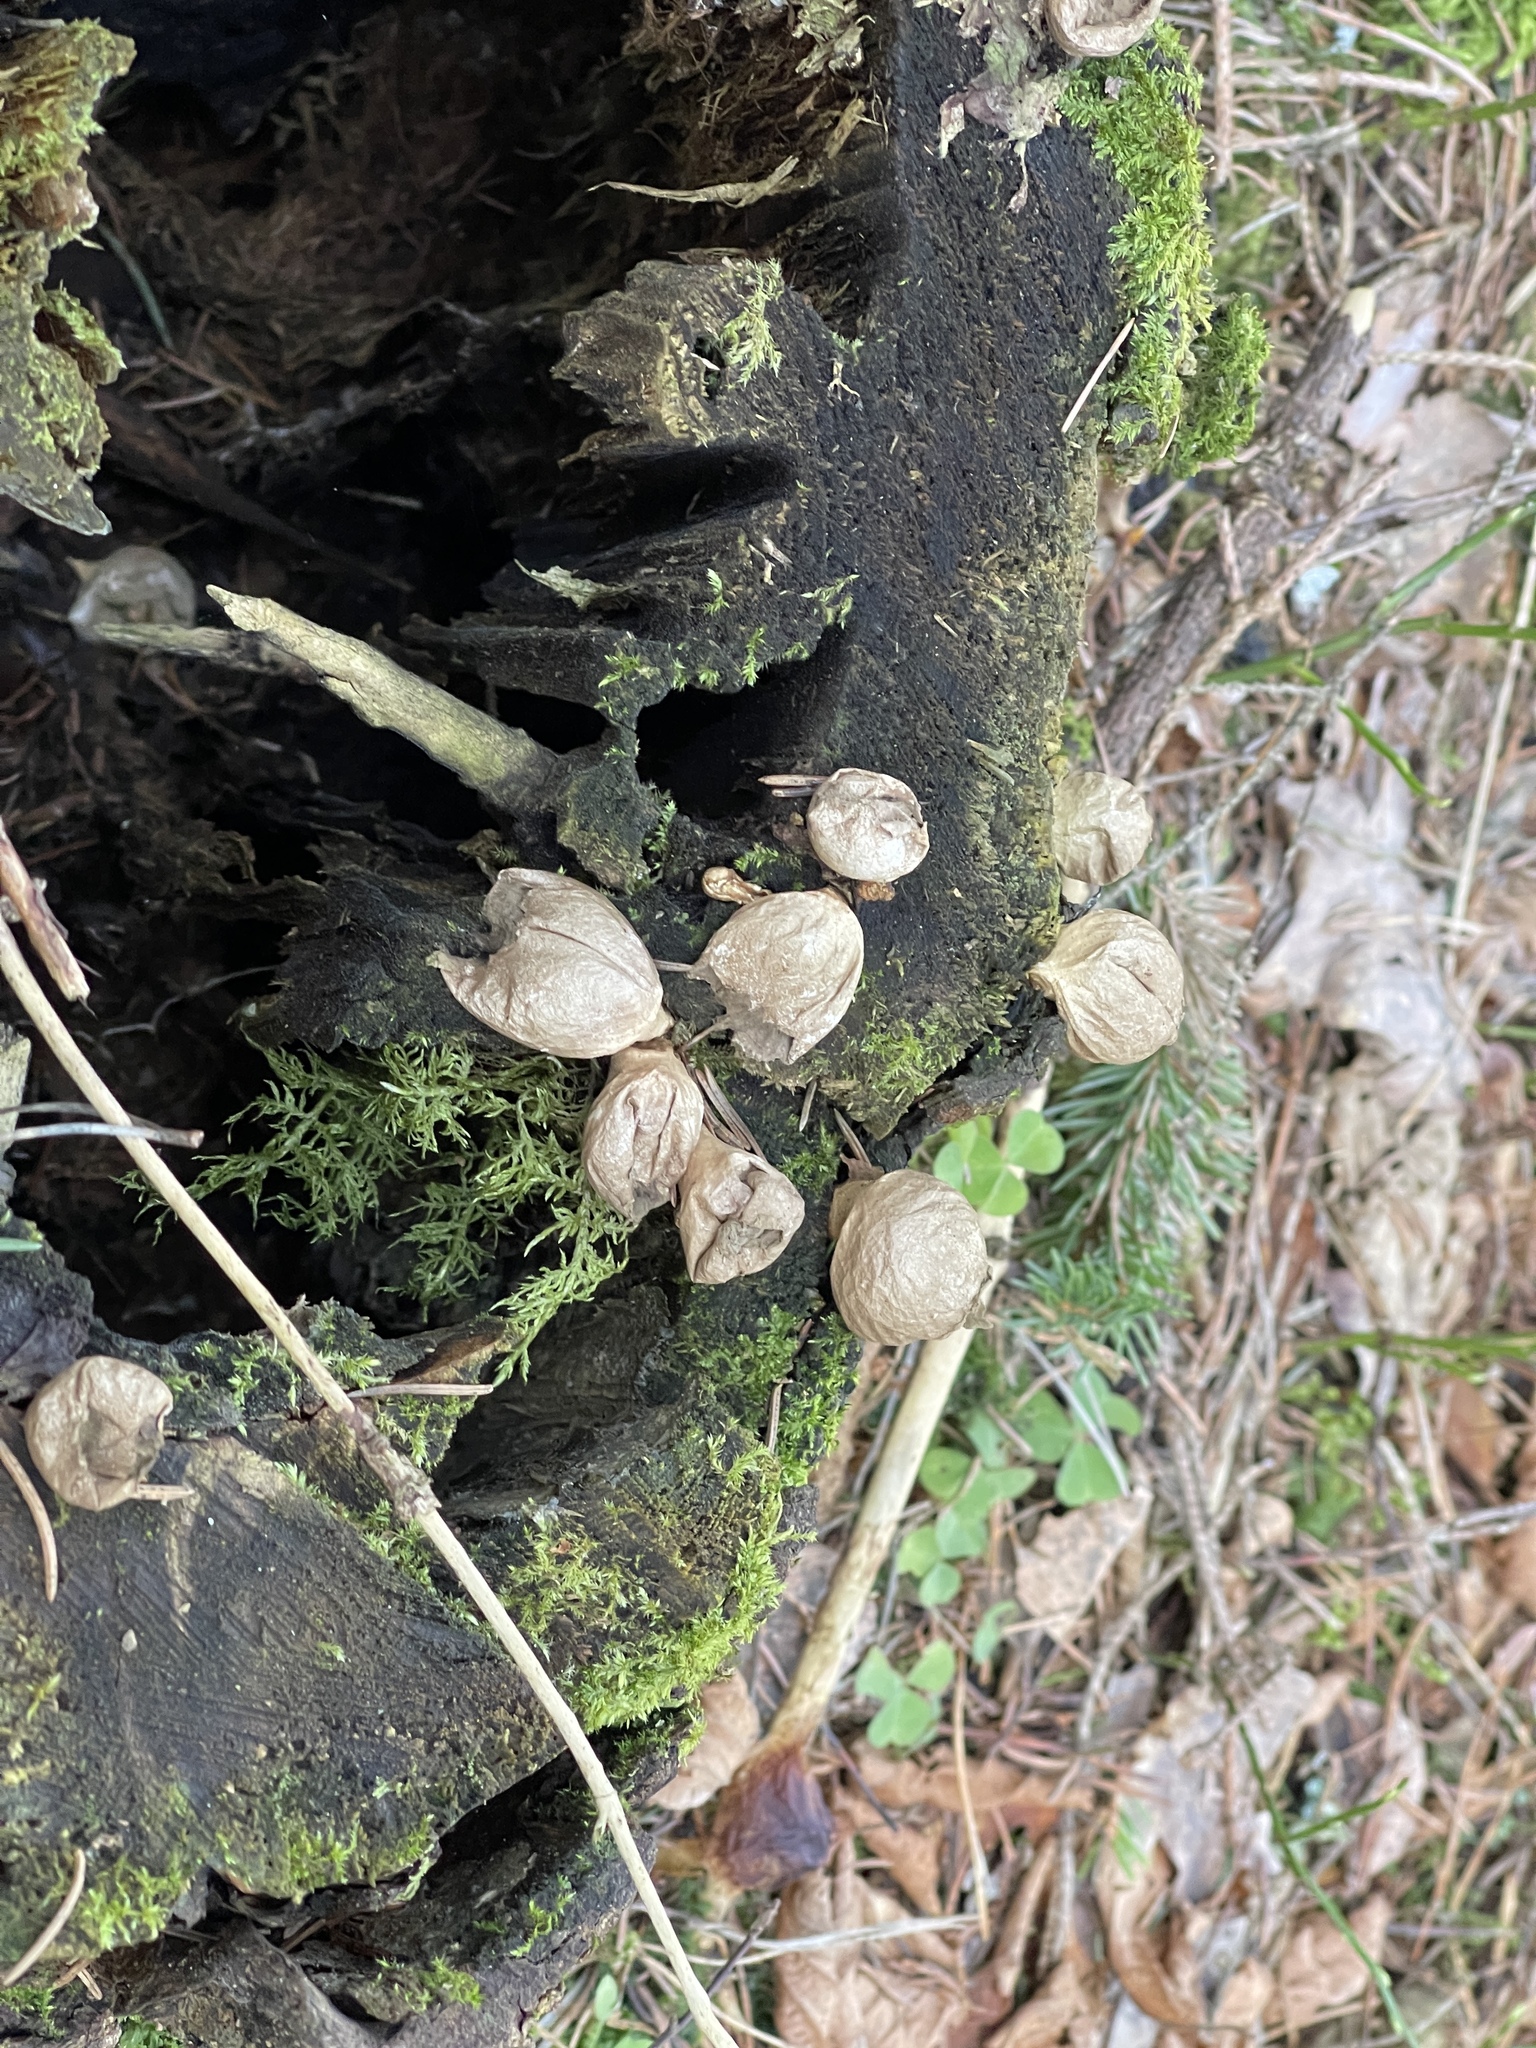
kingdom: Fungi
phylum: Basidiomycota
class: Agaricomycetes
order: Agaricales
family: Lycoperdaceae
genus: Apioperdon
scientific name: Apioperdon pyriforme
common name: Pear-shaped puffball
